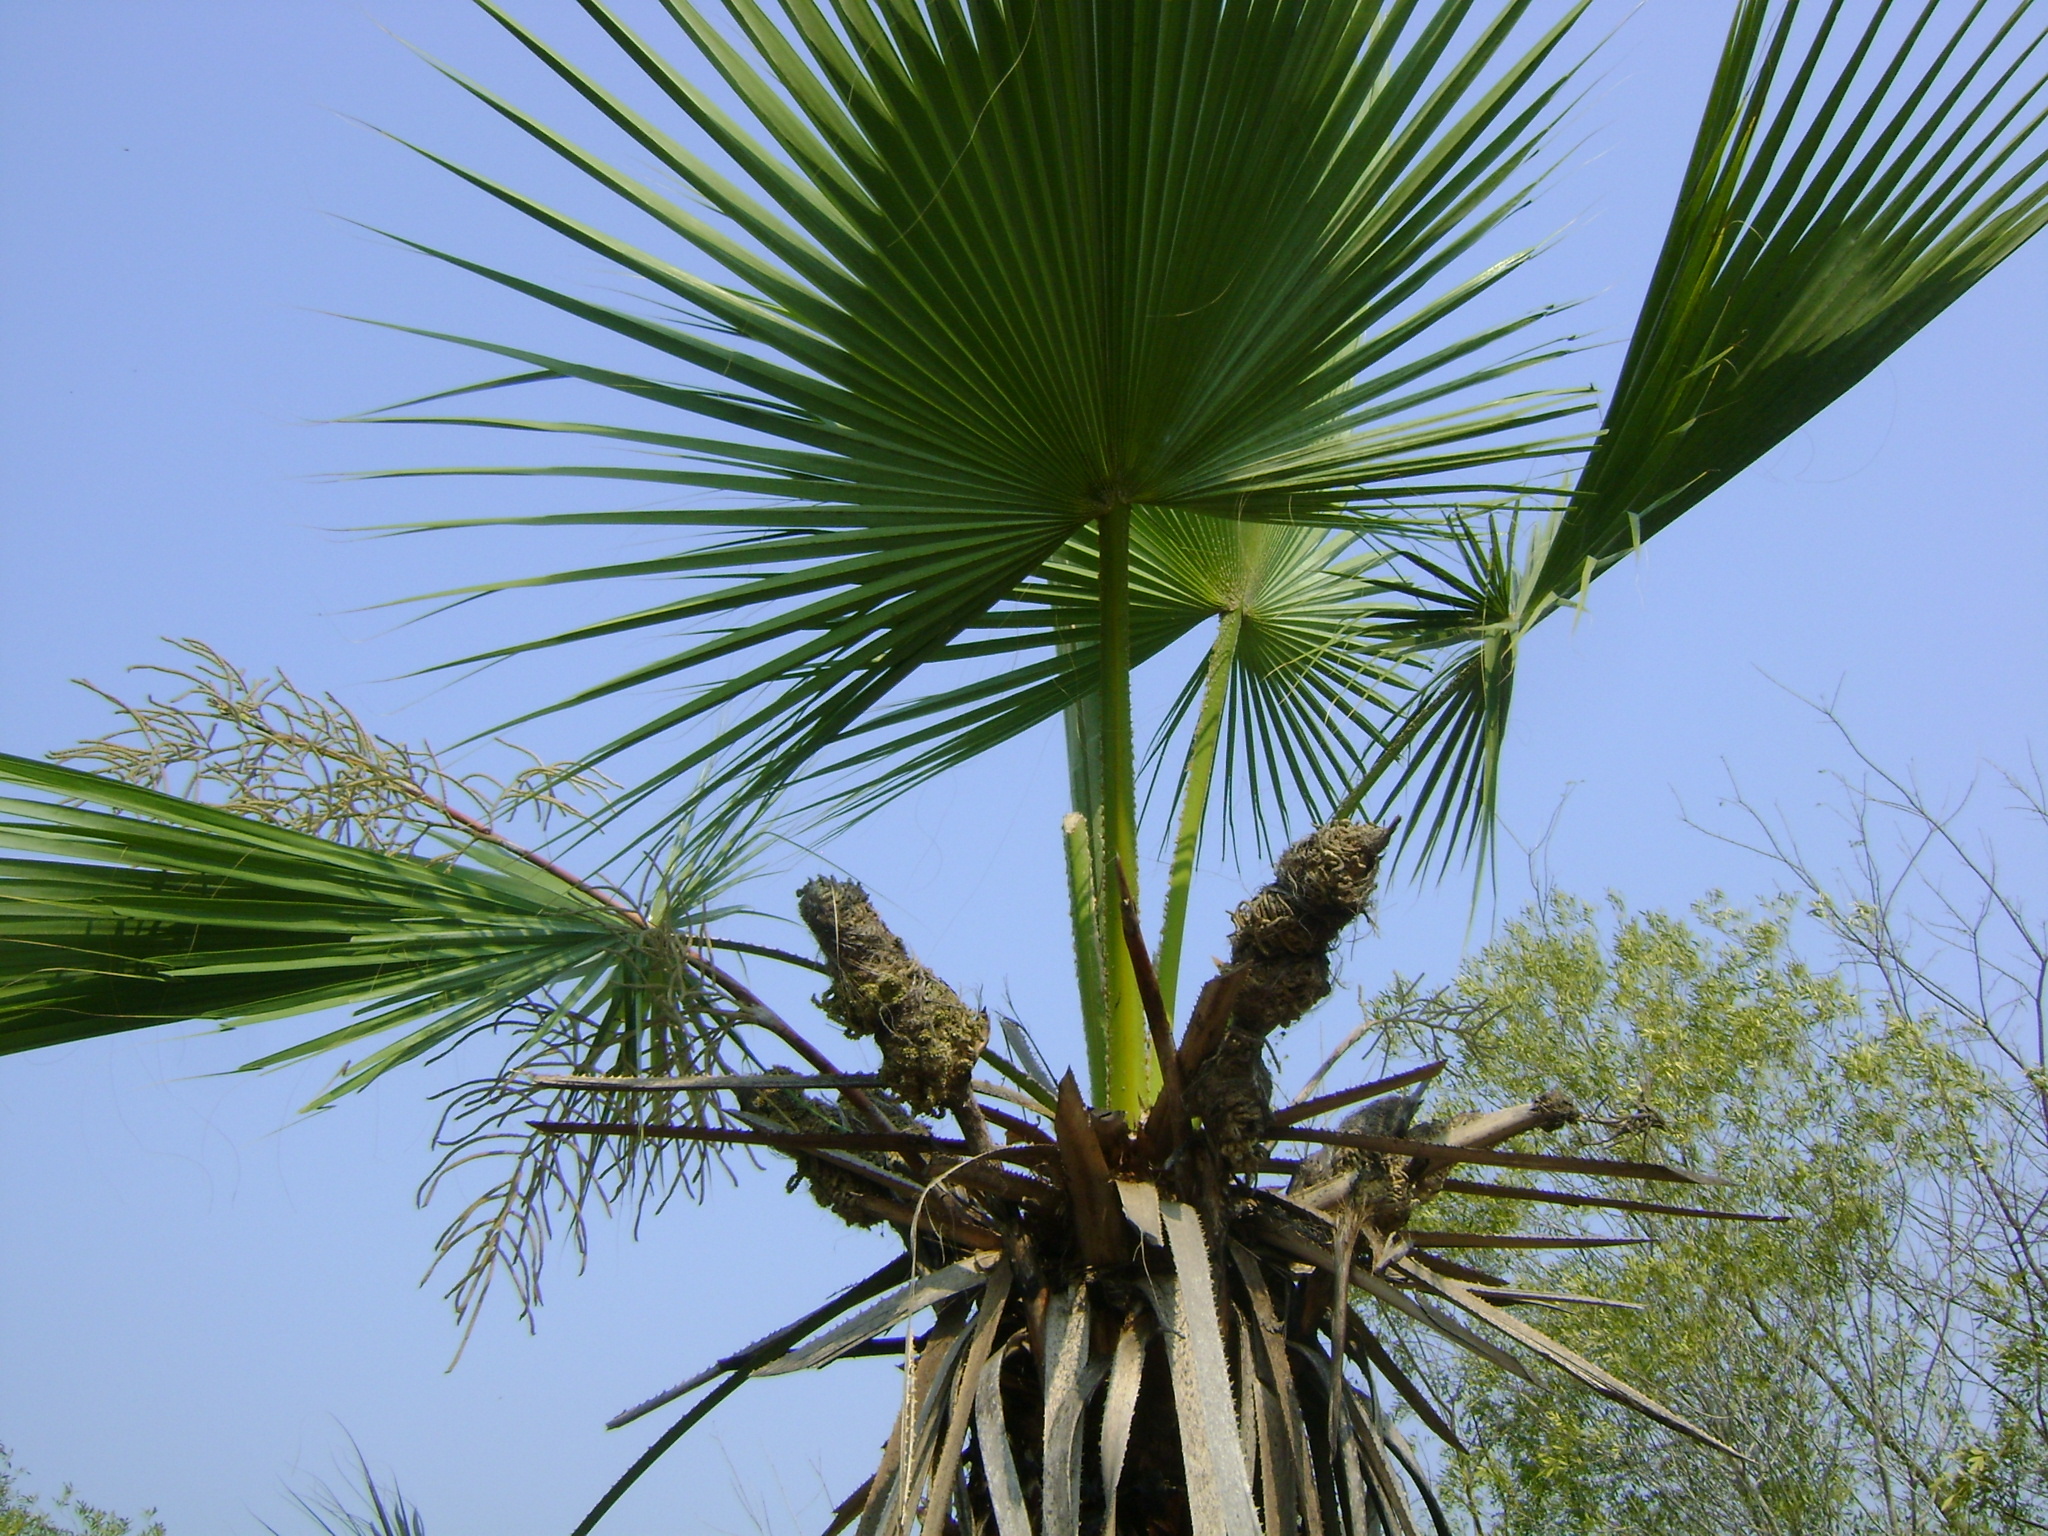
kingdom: Plantae
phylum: Tracheophyta
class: Liliopsida
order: Arecales
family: Arecaceae
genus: Brahea
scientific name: Brahea dulcis
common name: Apak palm
